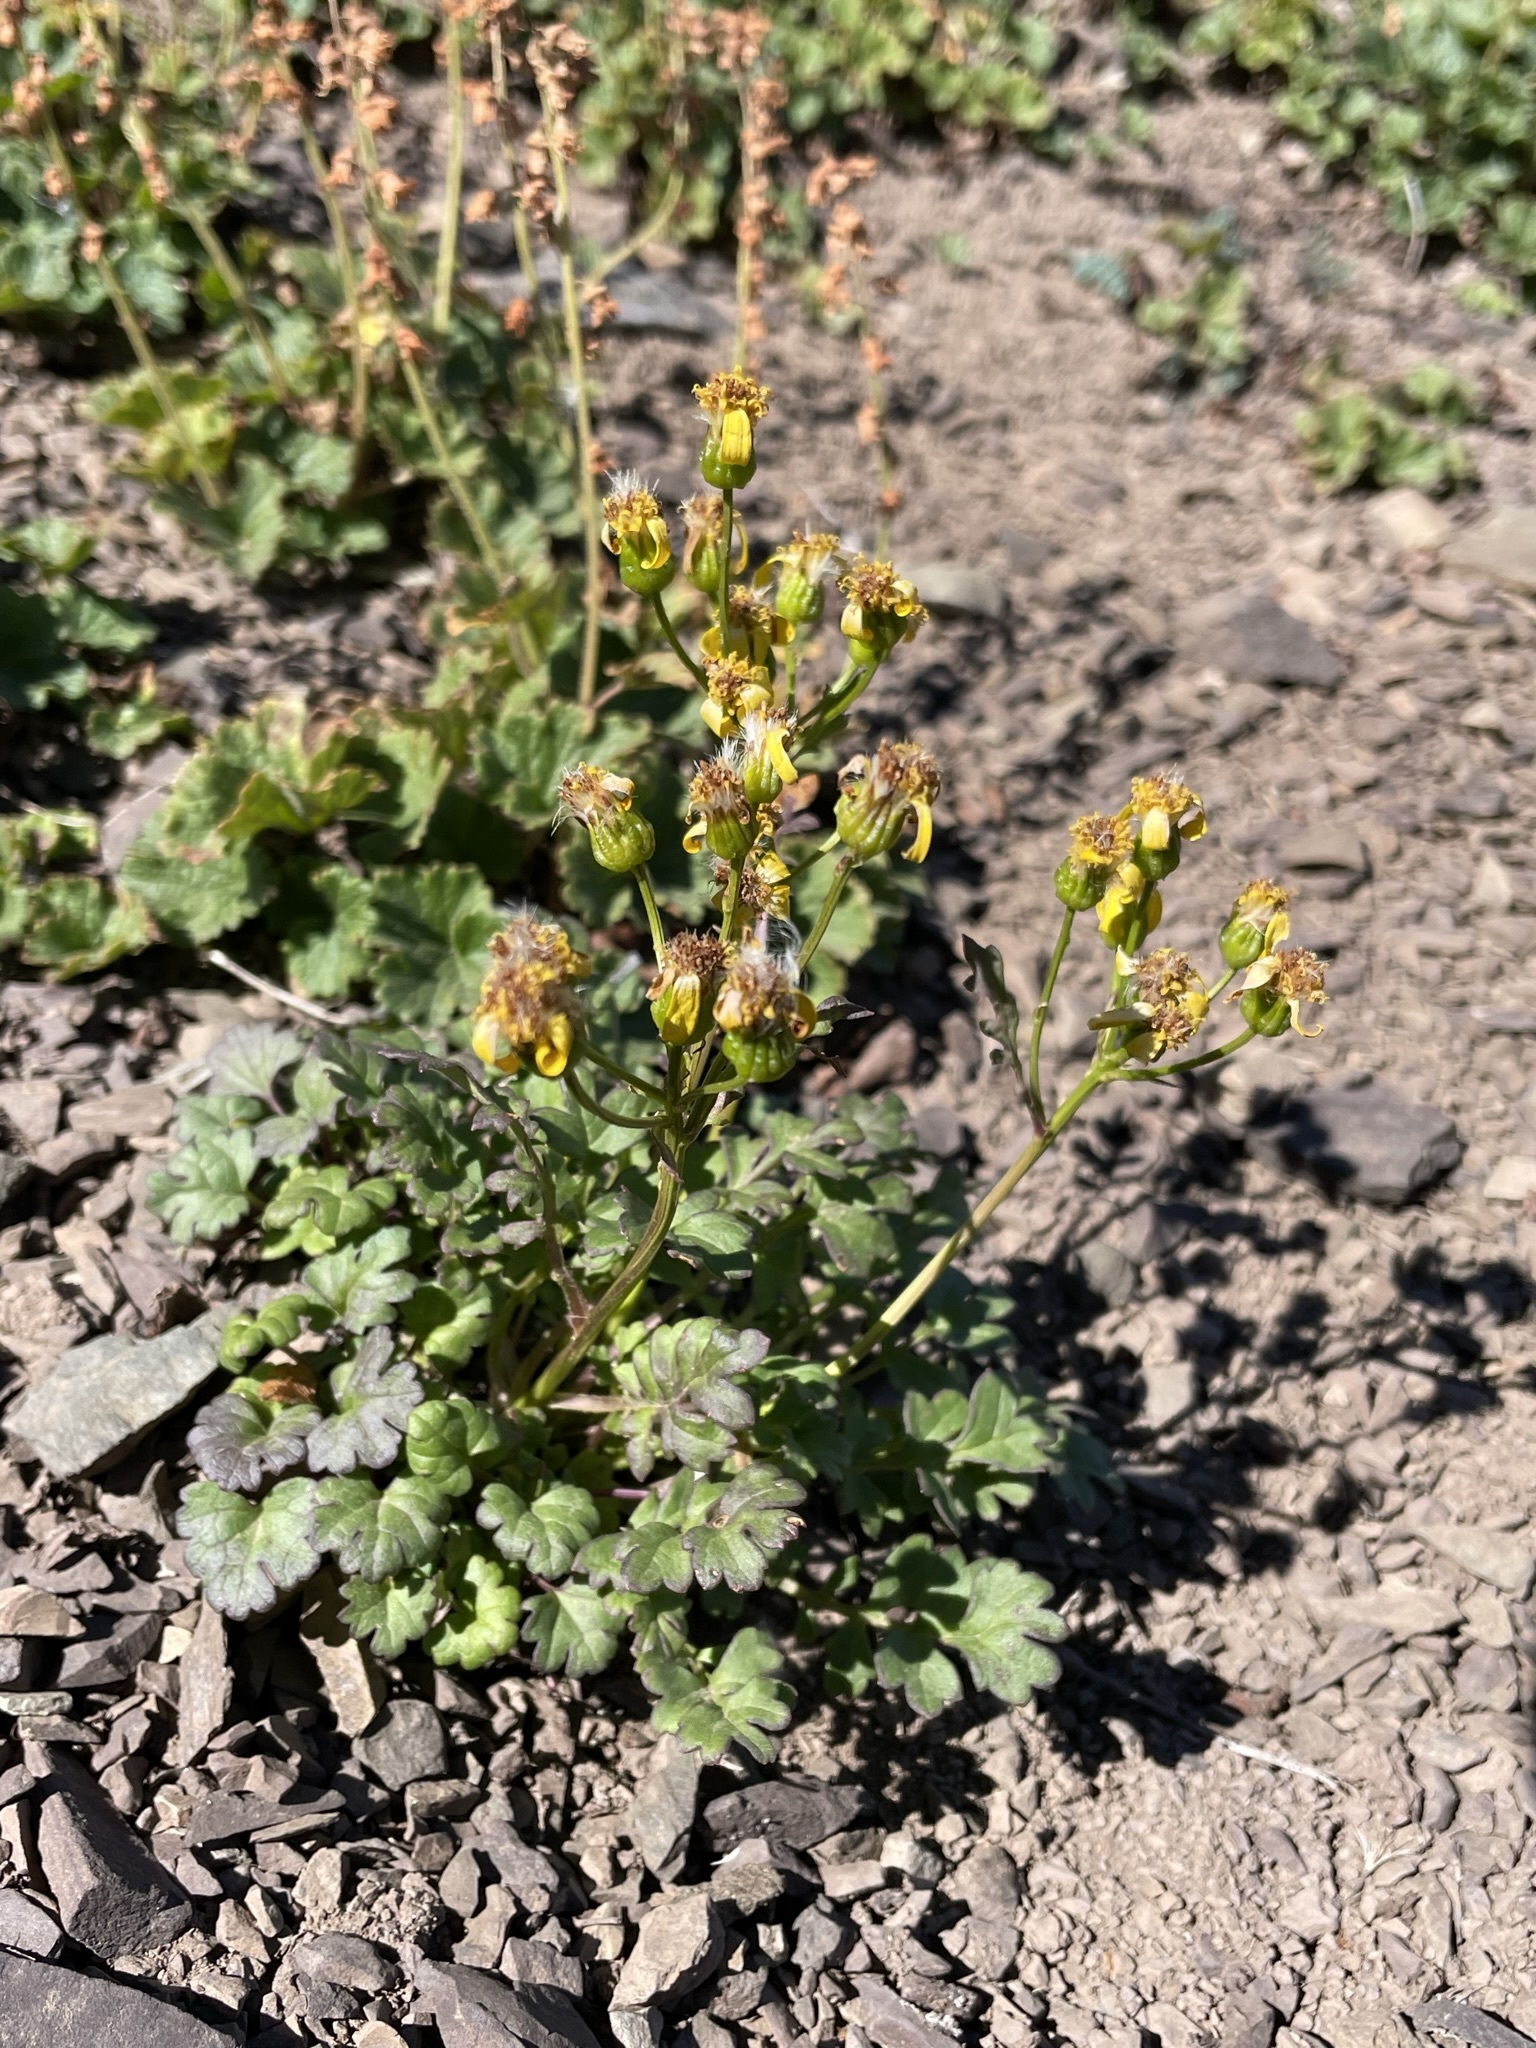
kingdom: Plantae
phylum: Tracheophyta
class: Magnoliopsida
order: Asterales
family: Asteraceae
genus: Packera
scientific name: Packera flettii
